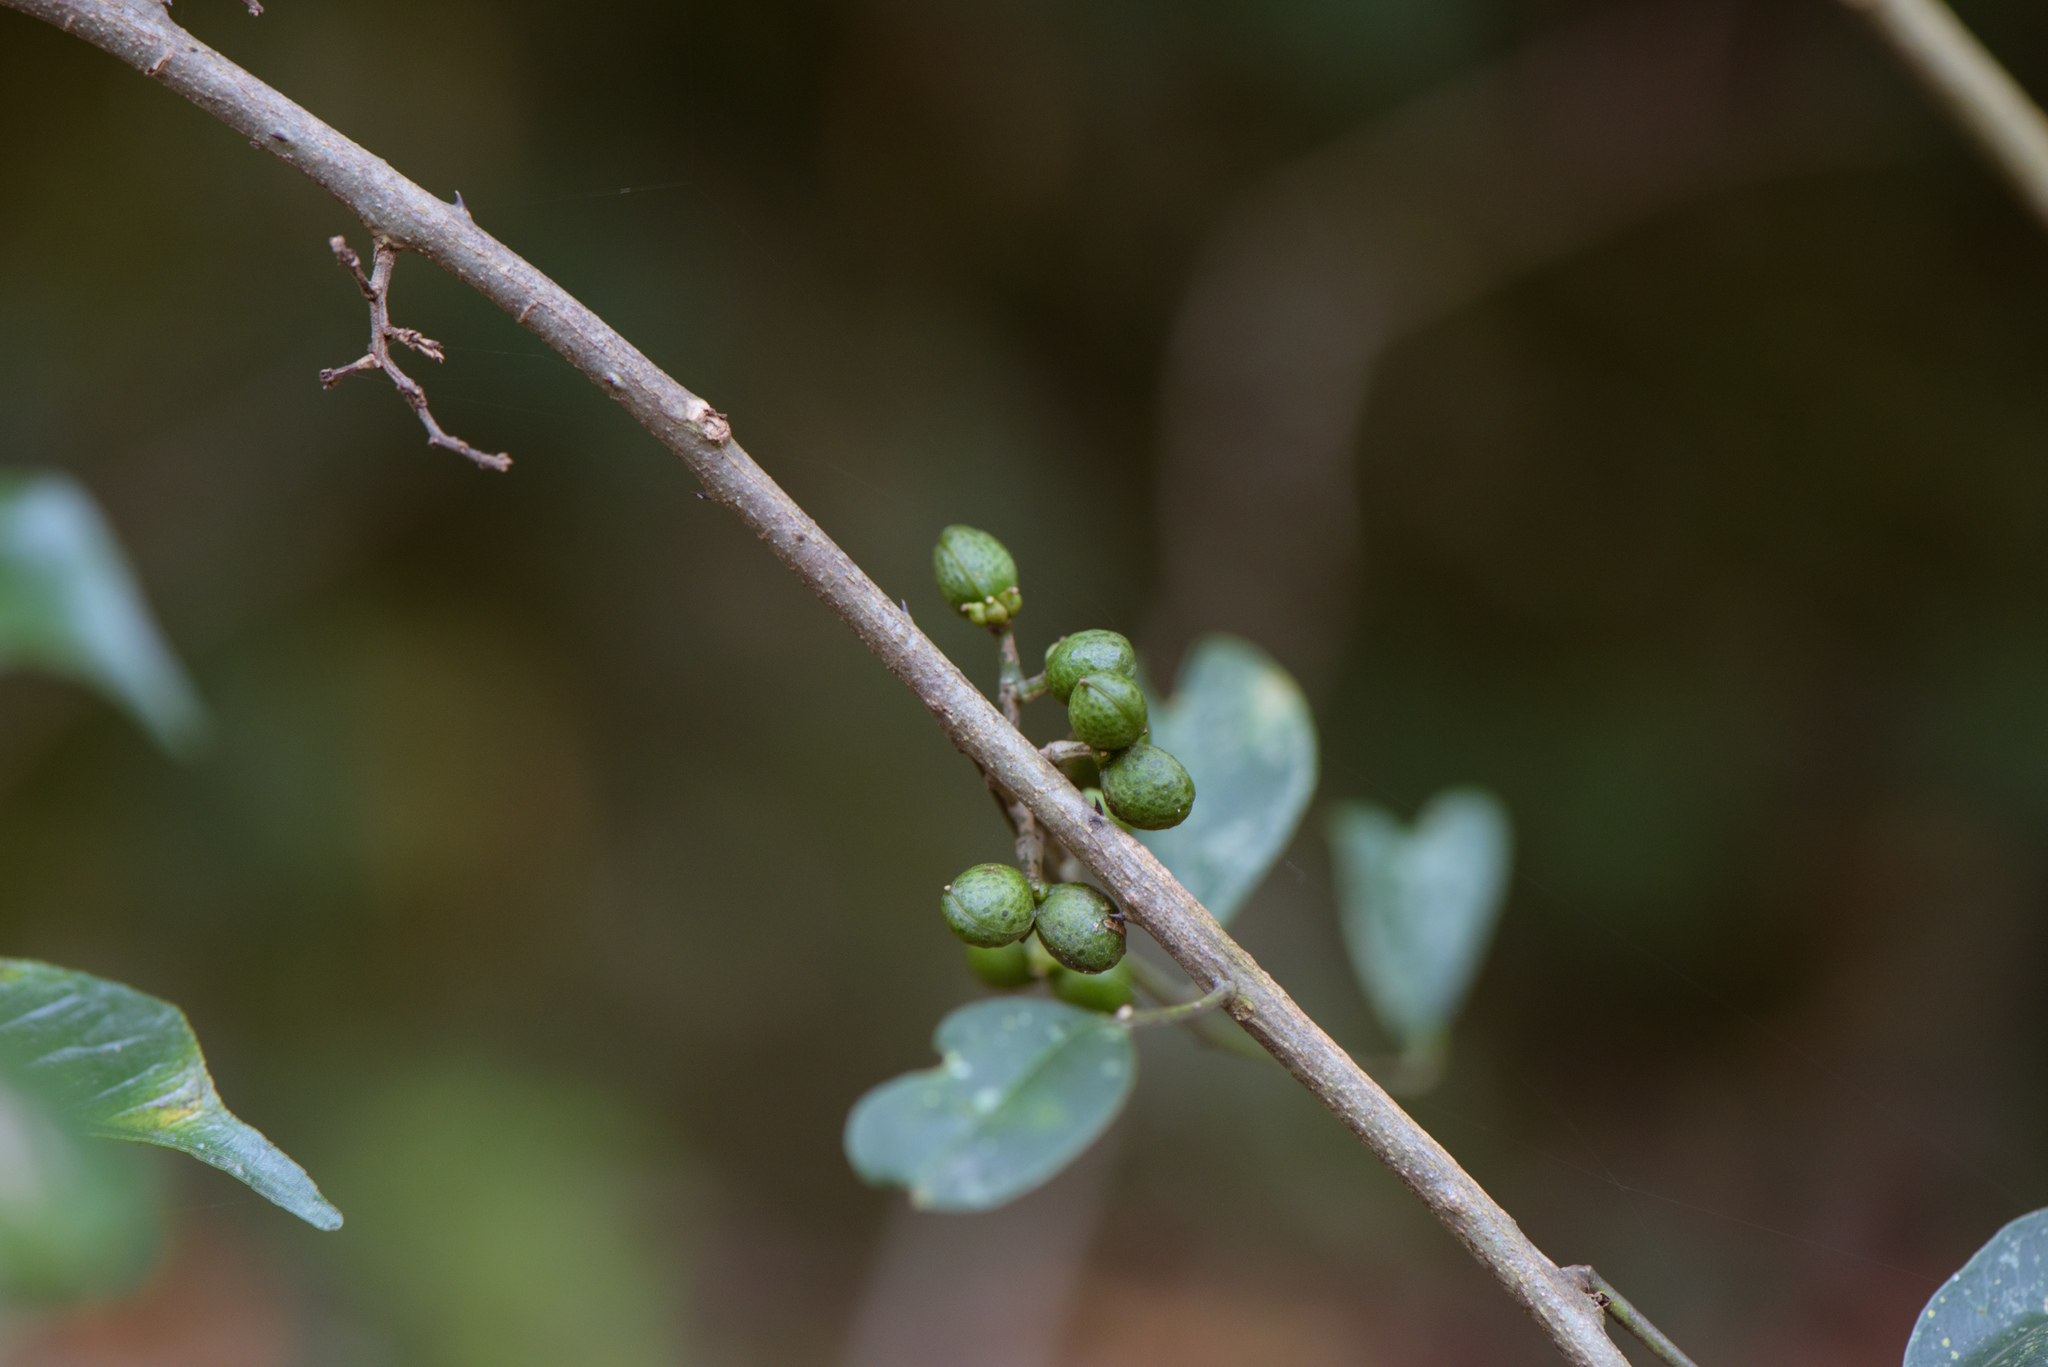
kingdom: Plantae
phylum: Tracheophyta
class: Magnoliopsida
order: Sapindales
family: Rutaceae
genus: Zanthoxylum
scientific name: Zanthoxylum scandens
